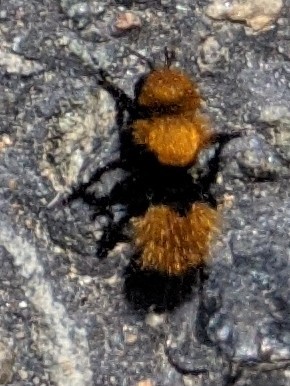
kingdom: Animalia
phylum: Arthropoda
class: Insecta
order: Hymenoptera
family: Mutillidae
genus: Dasymutilla
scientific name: Dasymutilla
